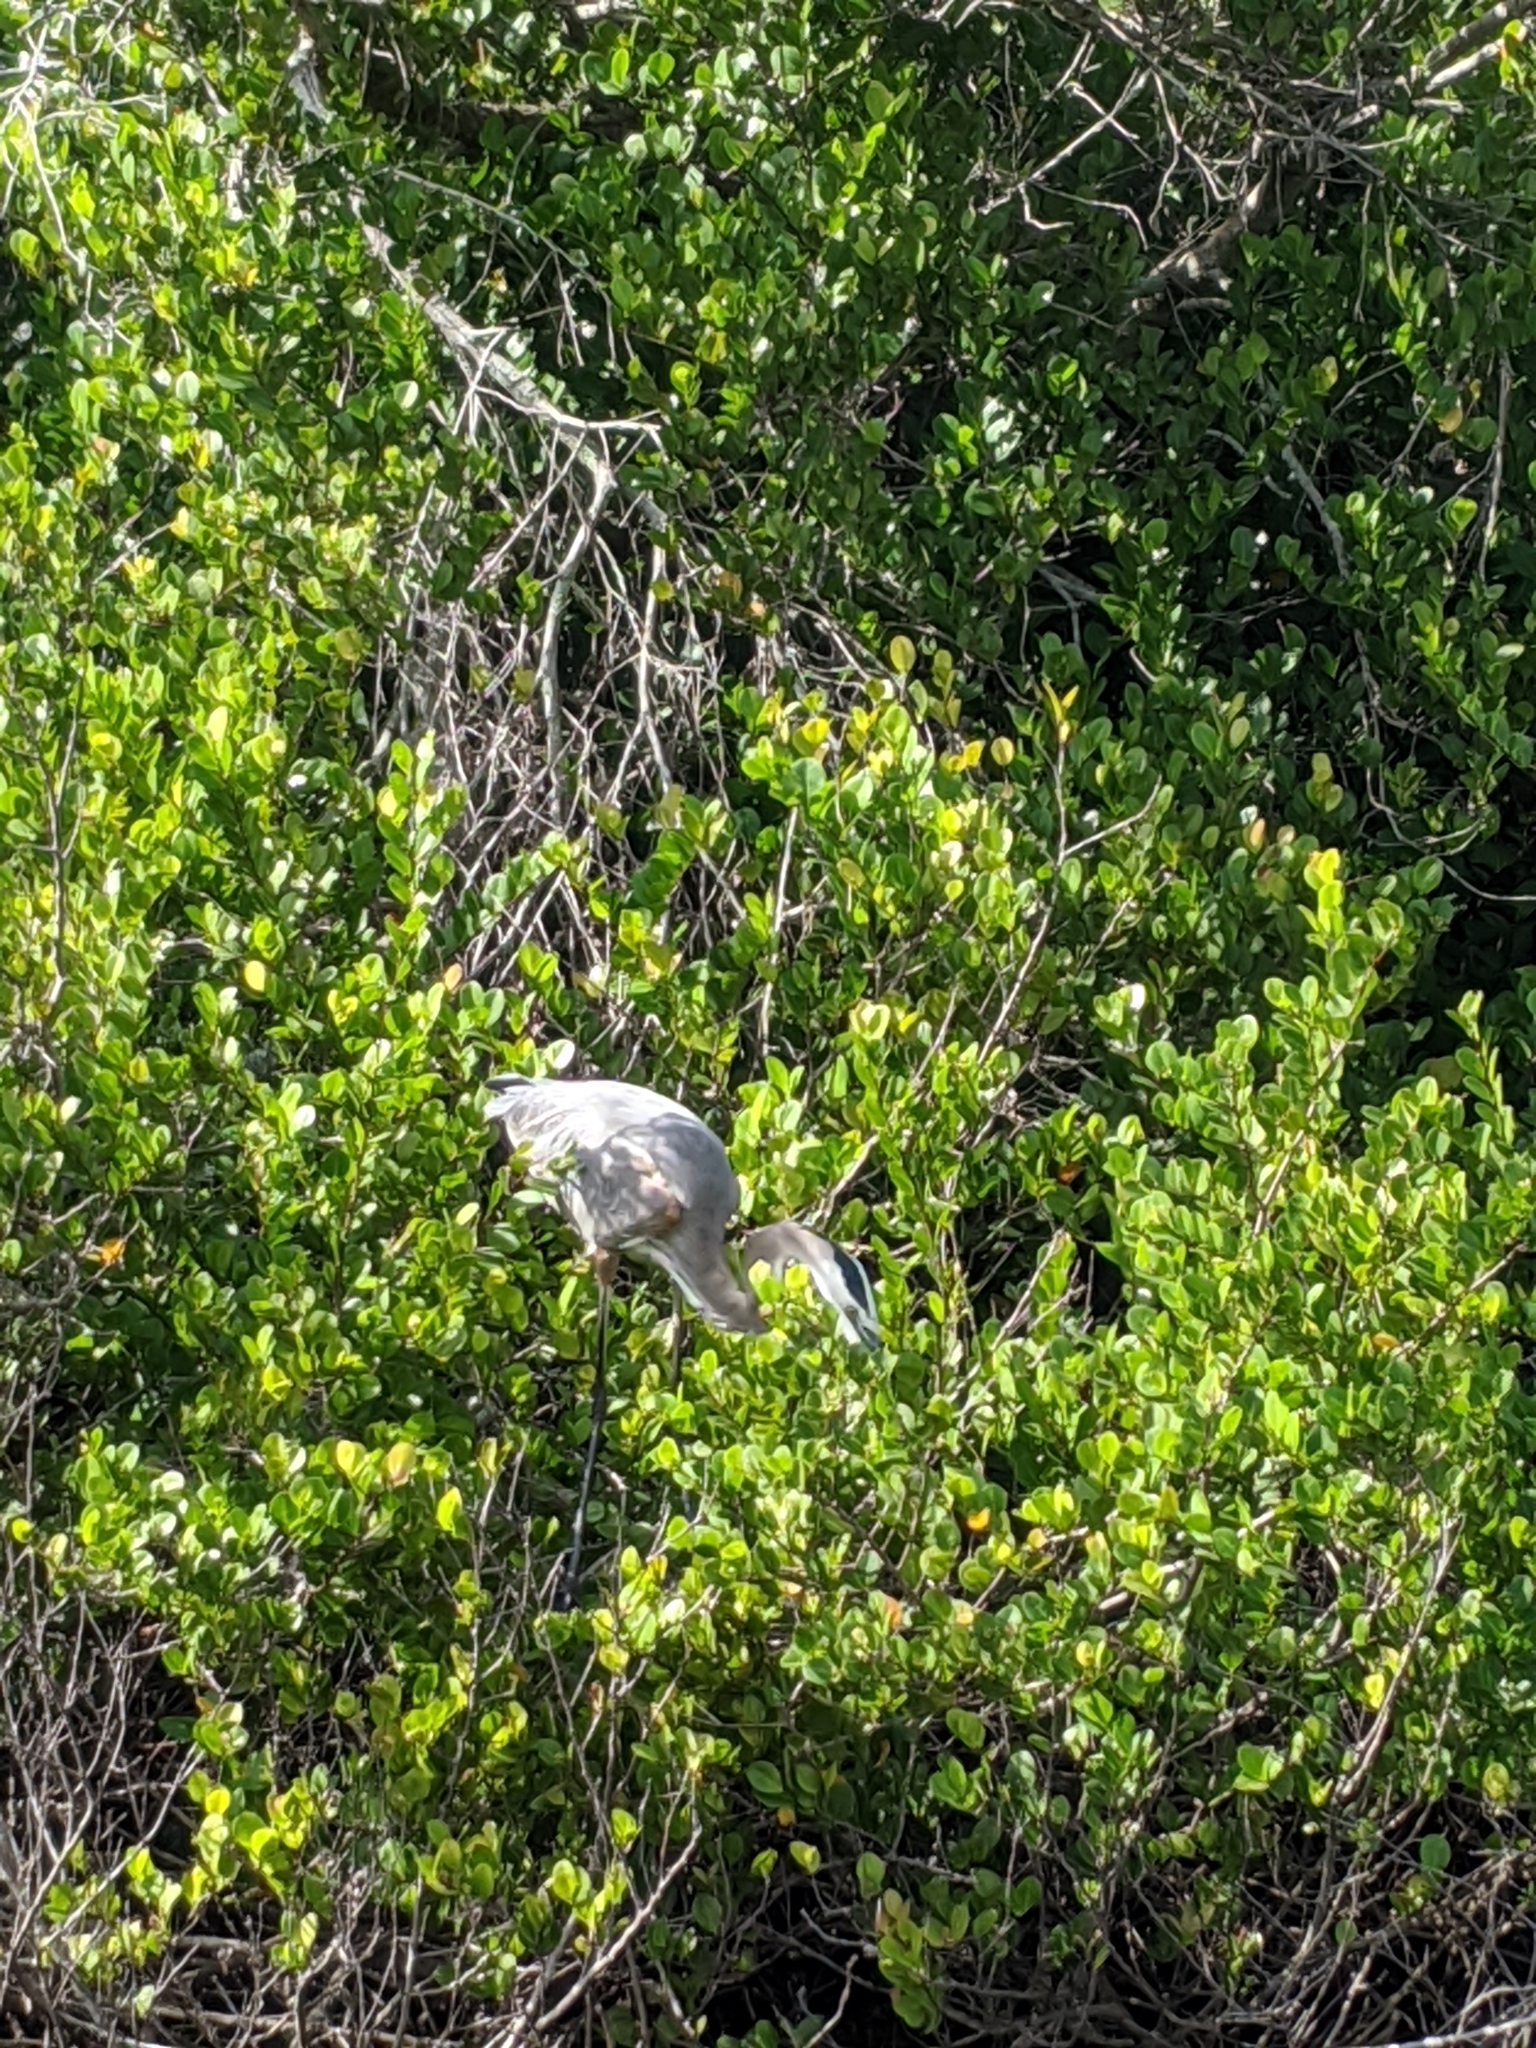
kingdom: Animalia
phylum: Chordata
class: Aves
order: Pelecaniformes
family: Ardeidae
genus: Ardea
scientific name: Ardea herodias
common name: Great blue heron
